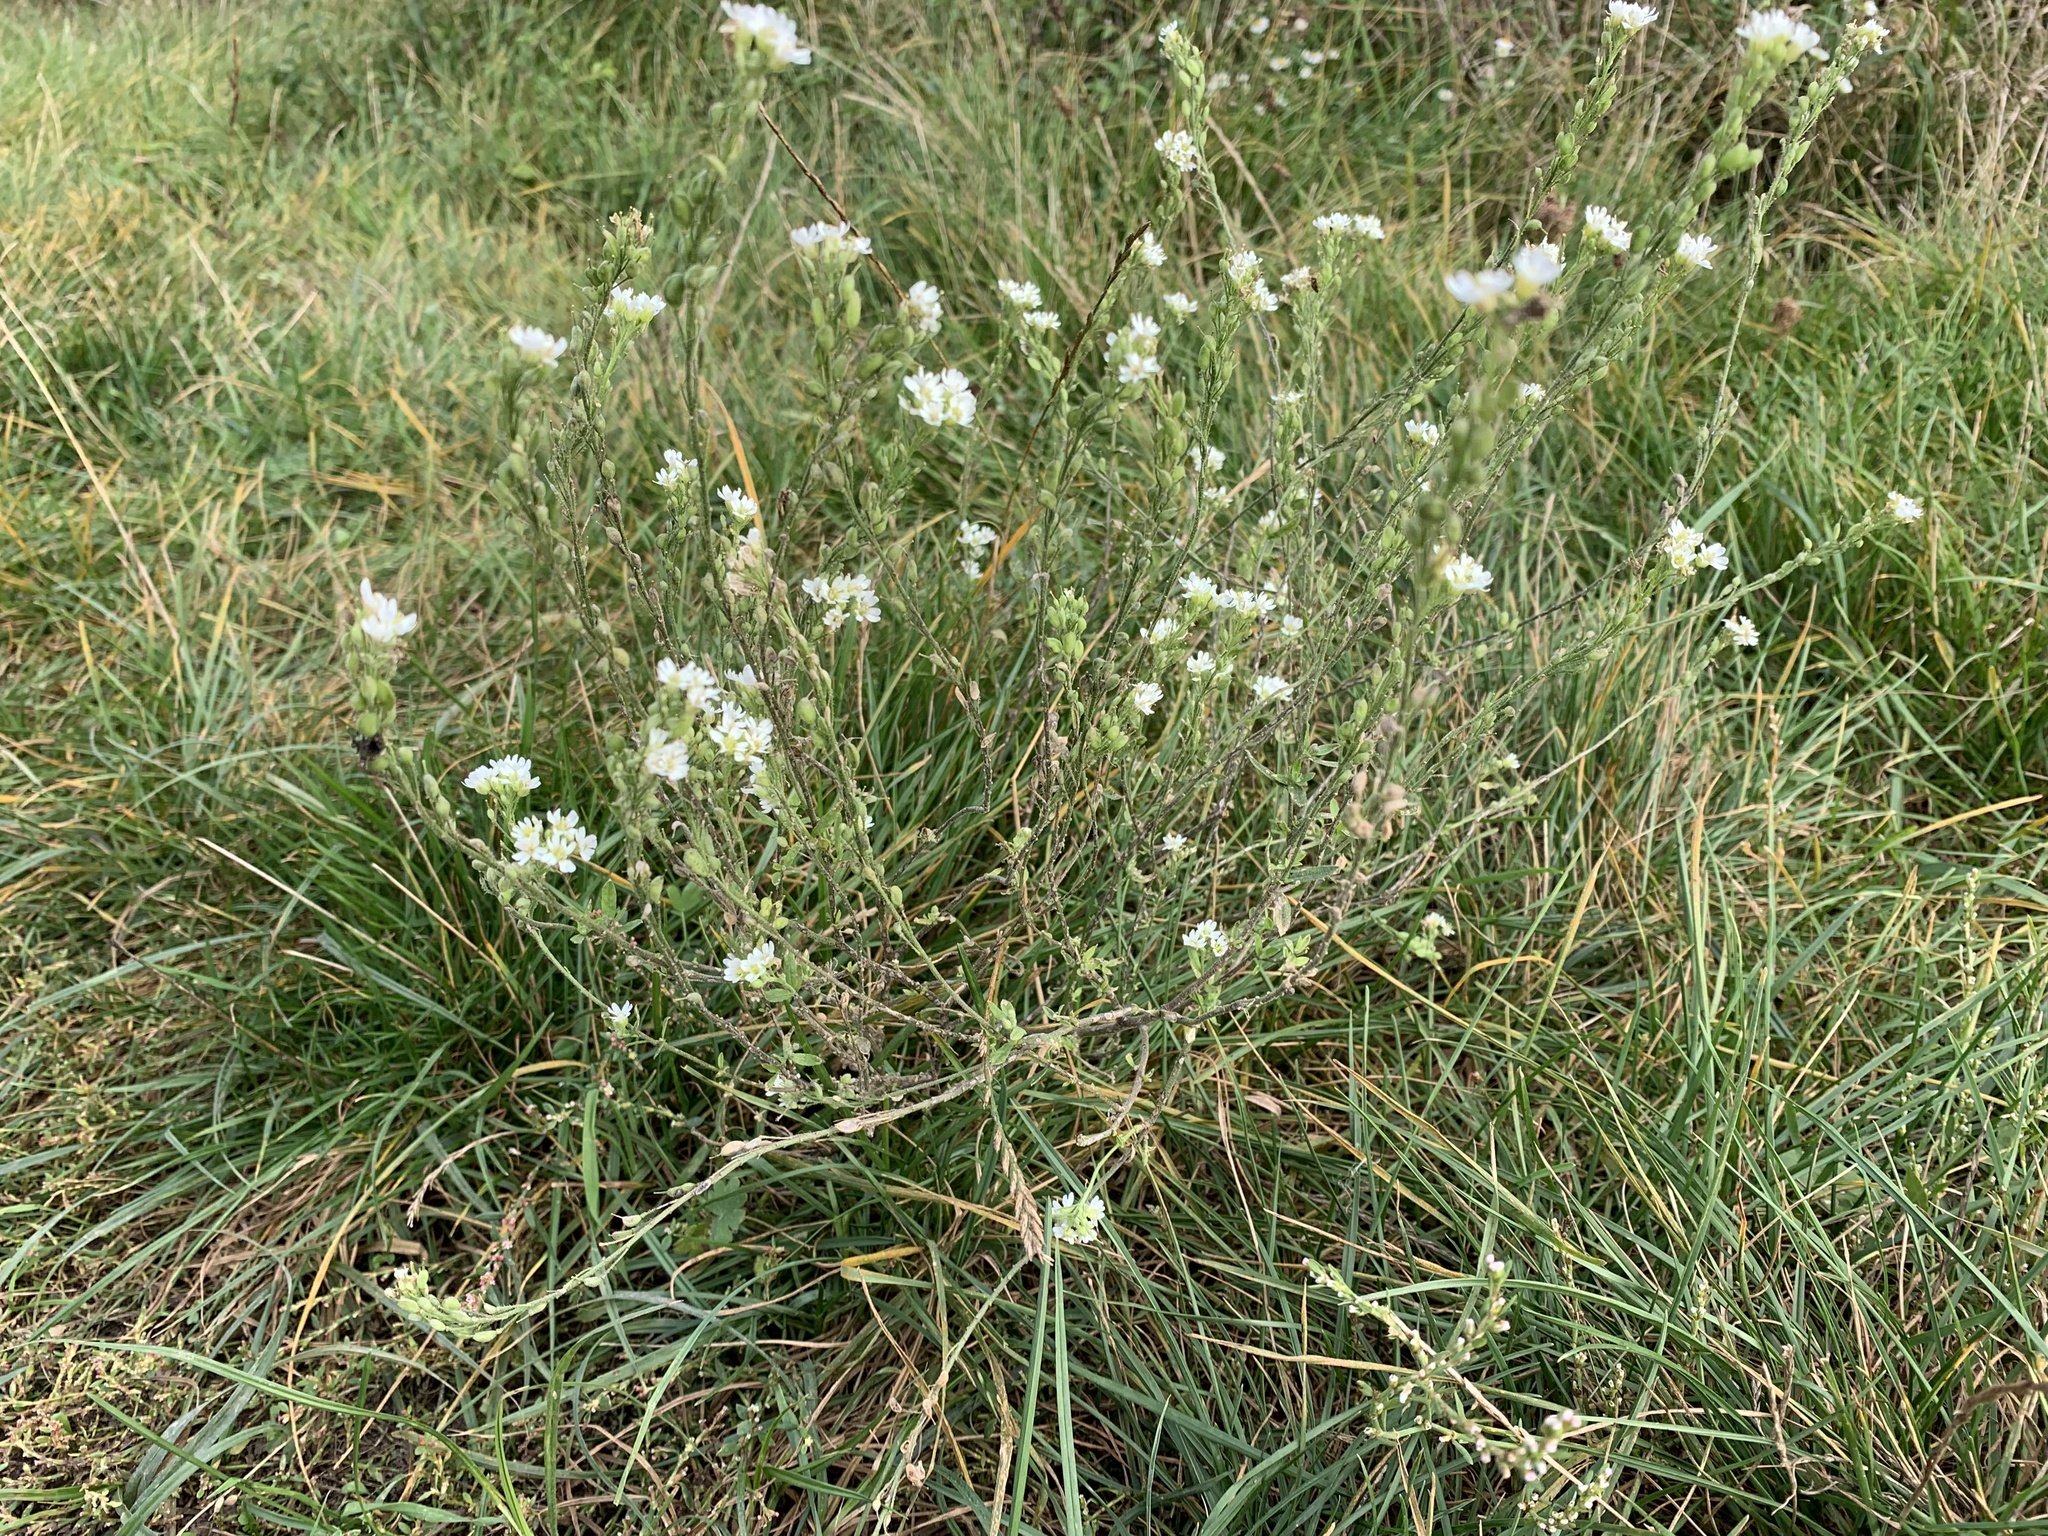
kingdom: Plantae
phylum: Tracheophyta
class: Magnoliopsida
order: Brassicales
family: Brassicaceae
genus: Berteroa
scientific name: Berteroa incana
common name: Hoary alison
